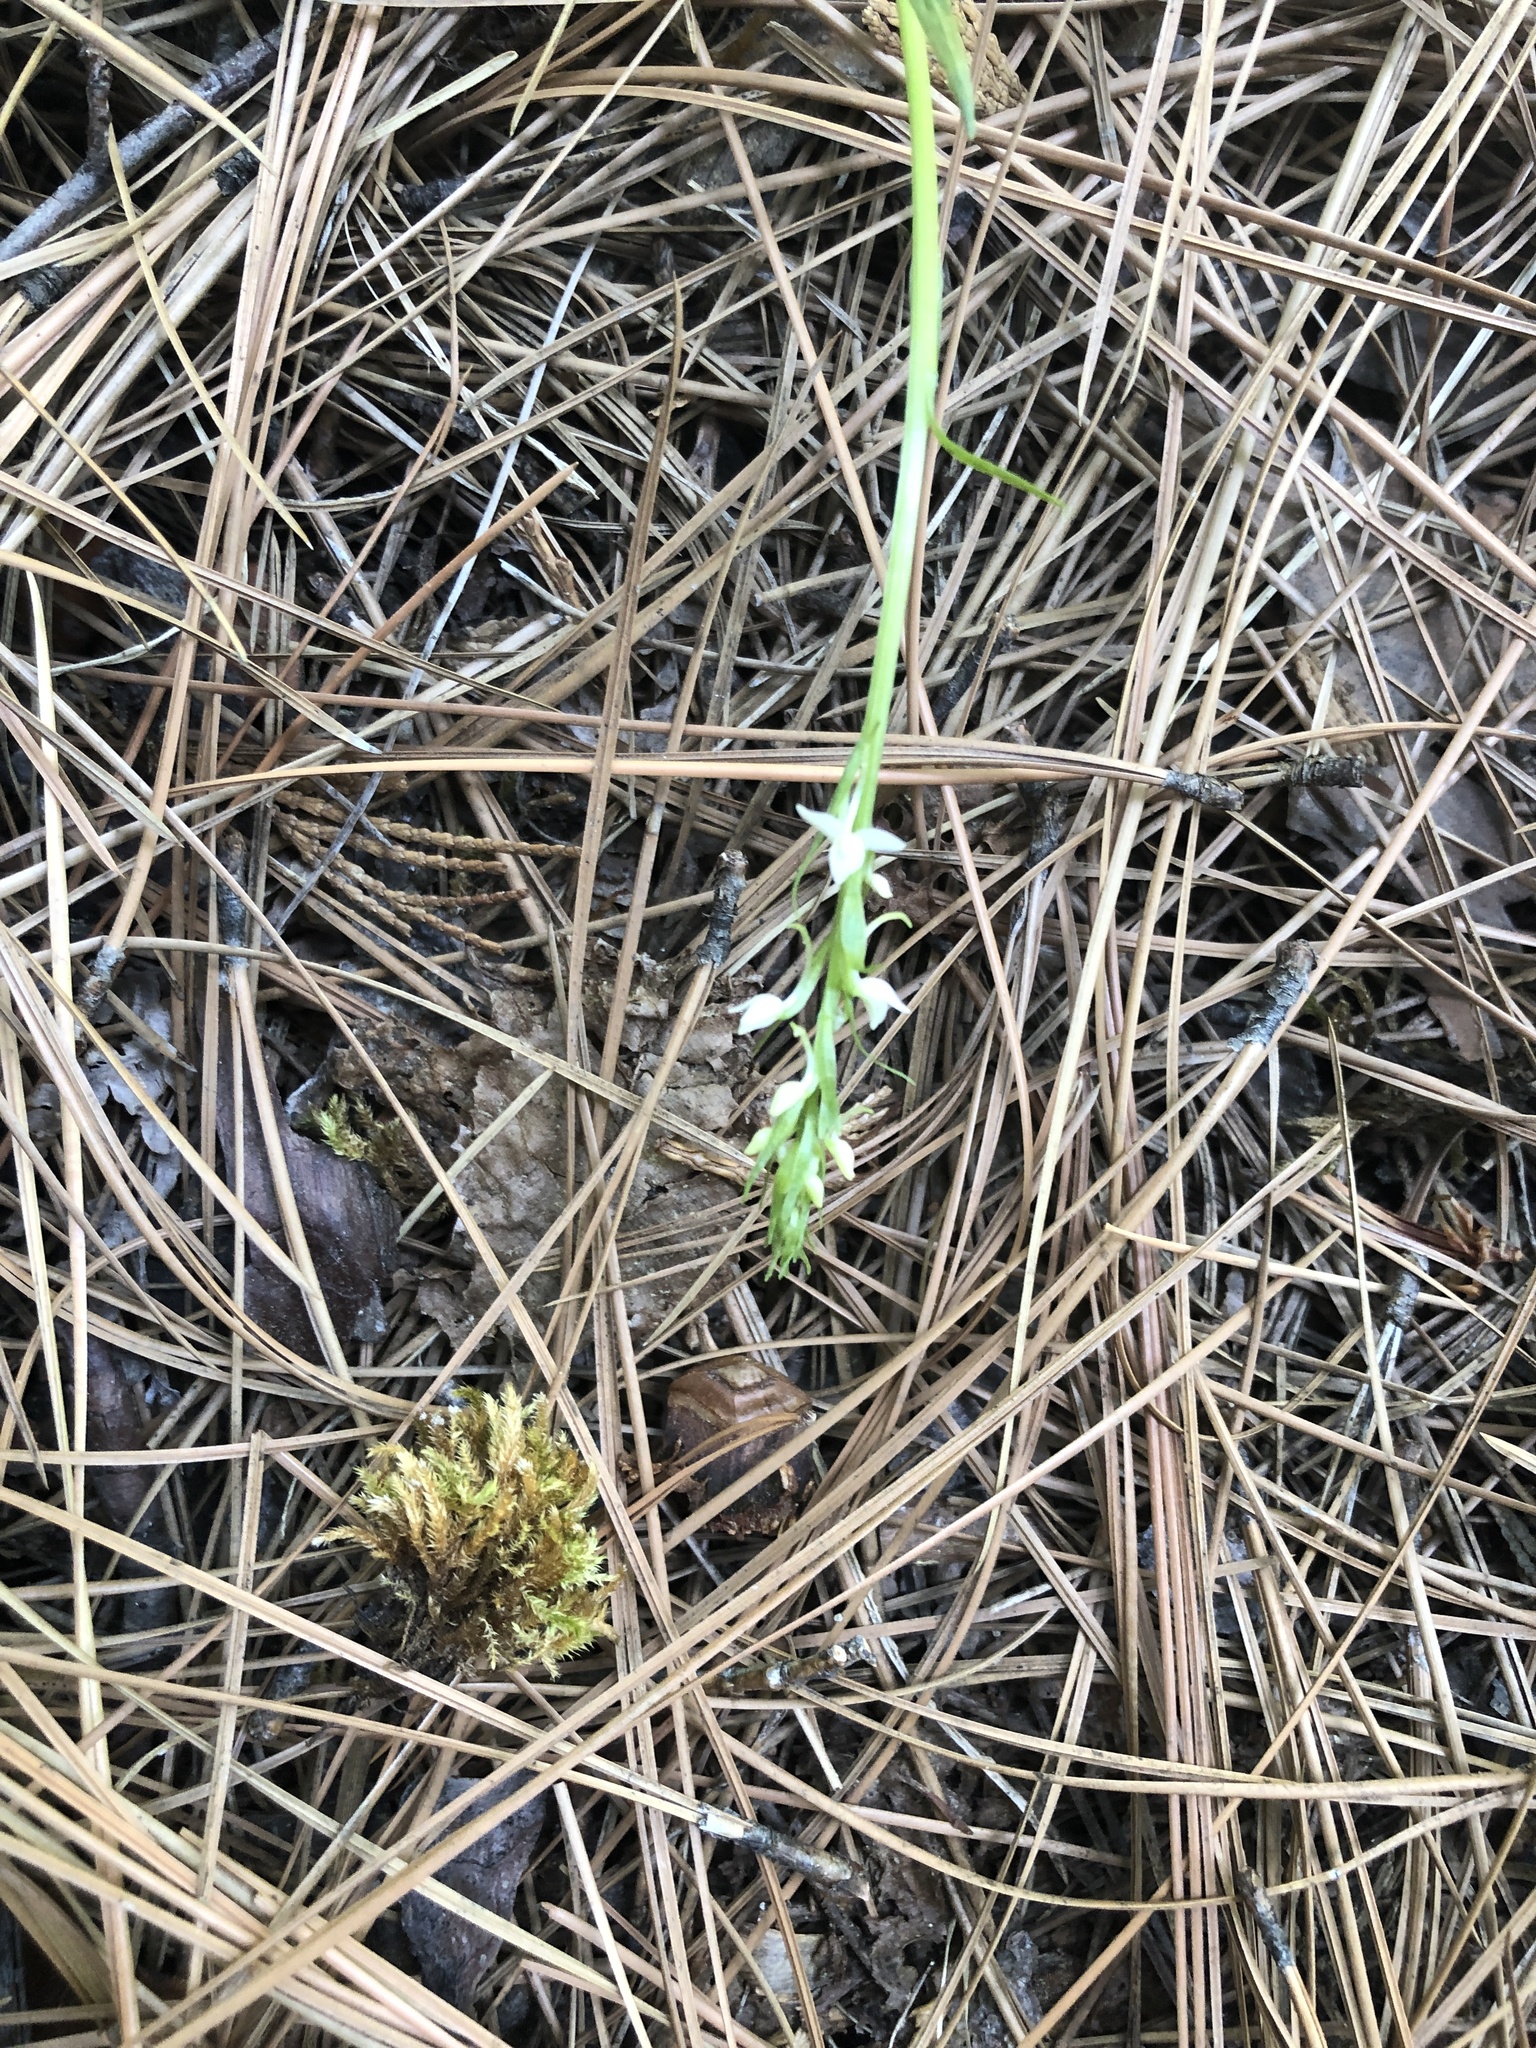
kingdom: Plantae
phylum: Tracheophyta
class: Liliopsida
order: Asparagales
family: Orchidaceae
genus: Platanthera
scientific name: Platanthera dilatata
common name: Bog candles
